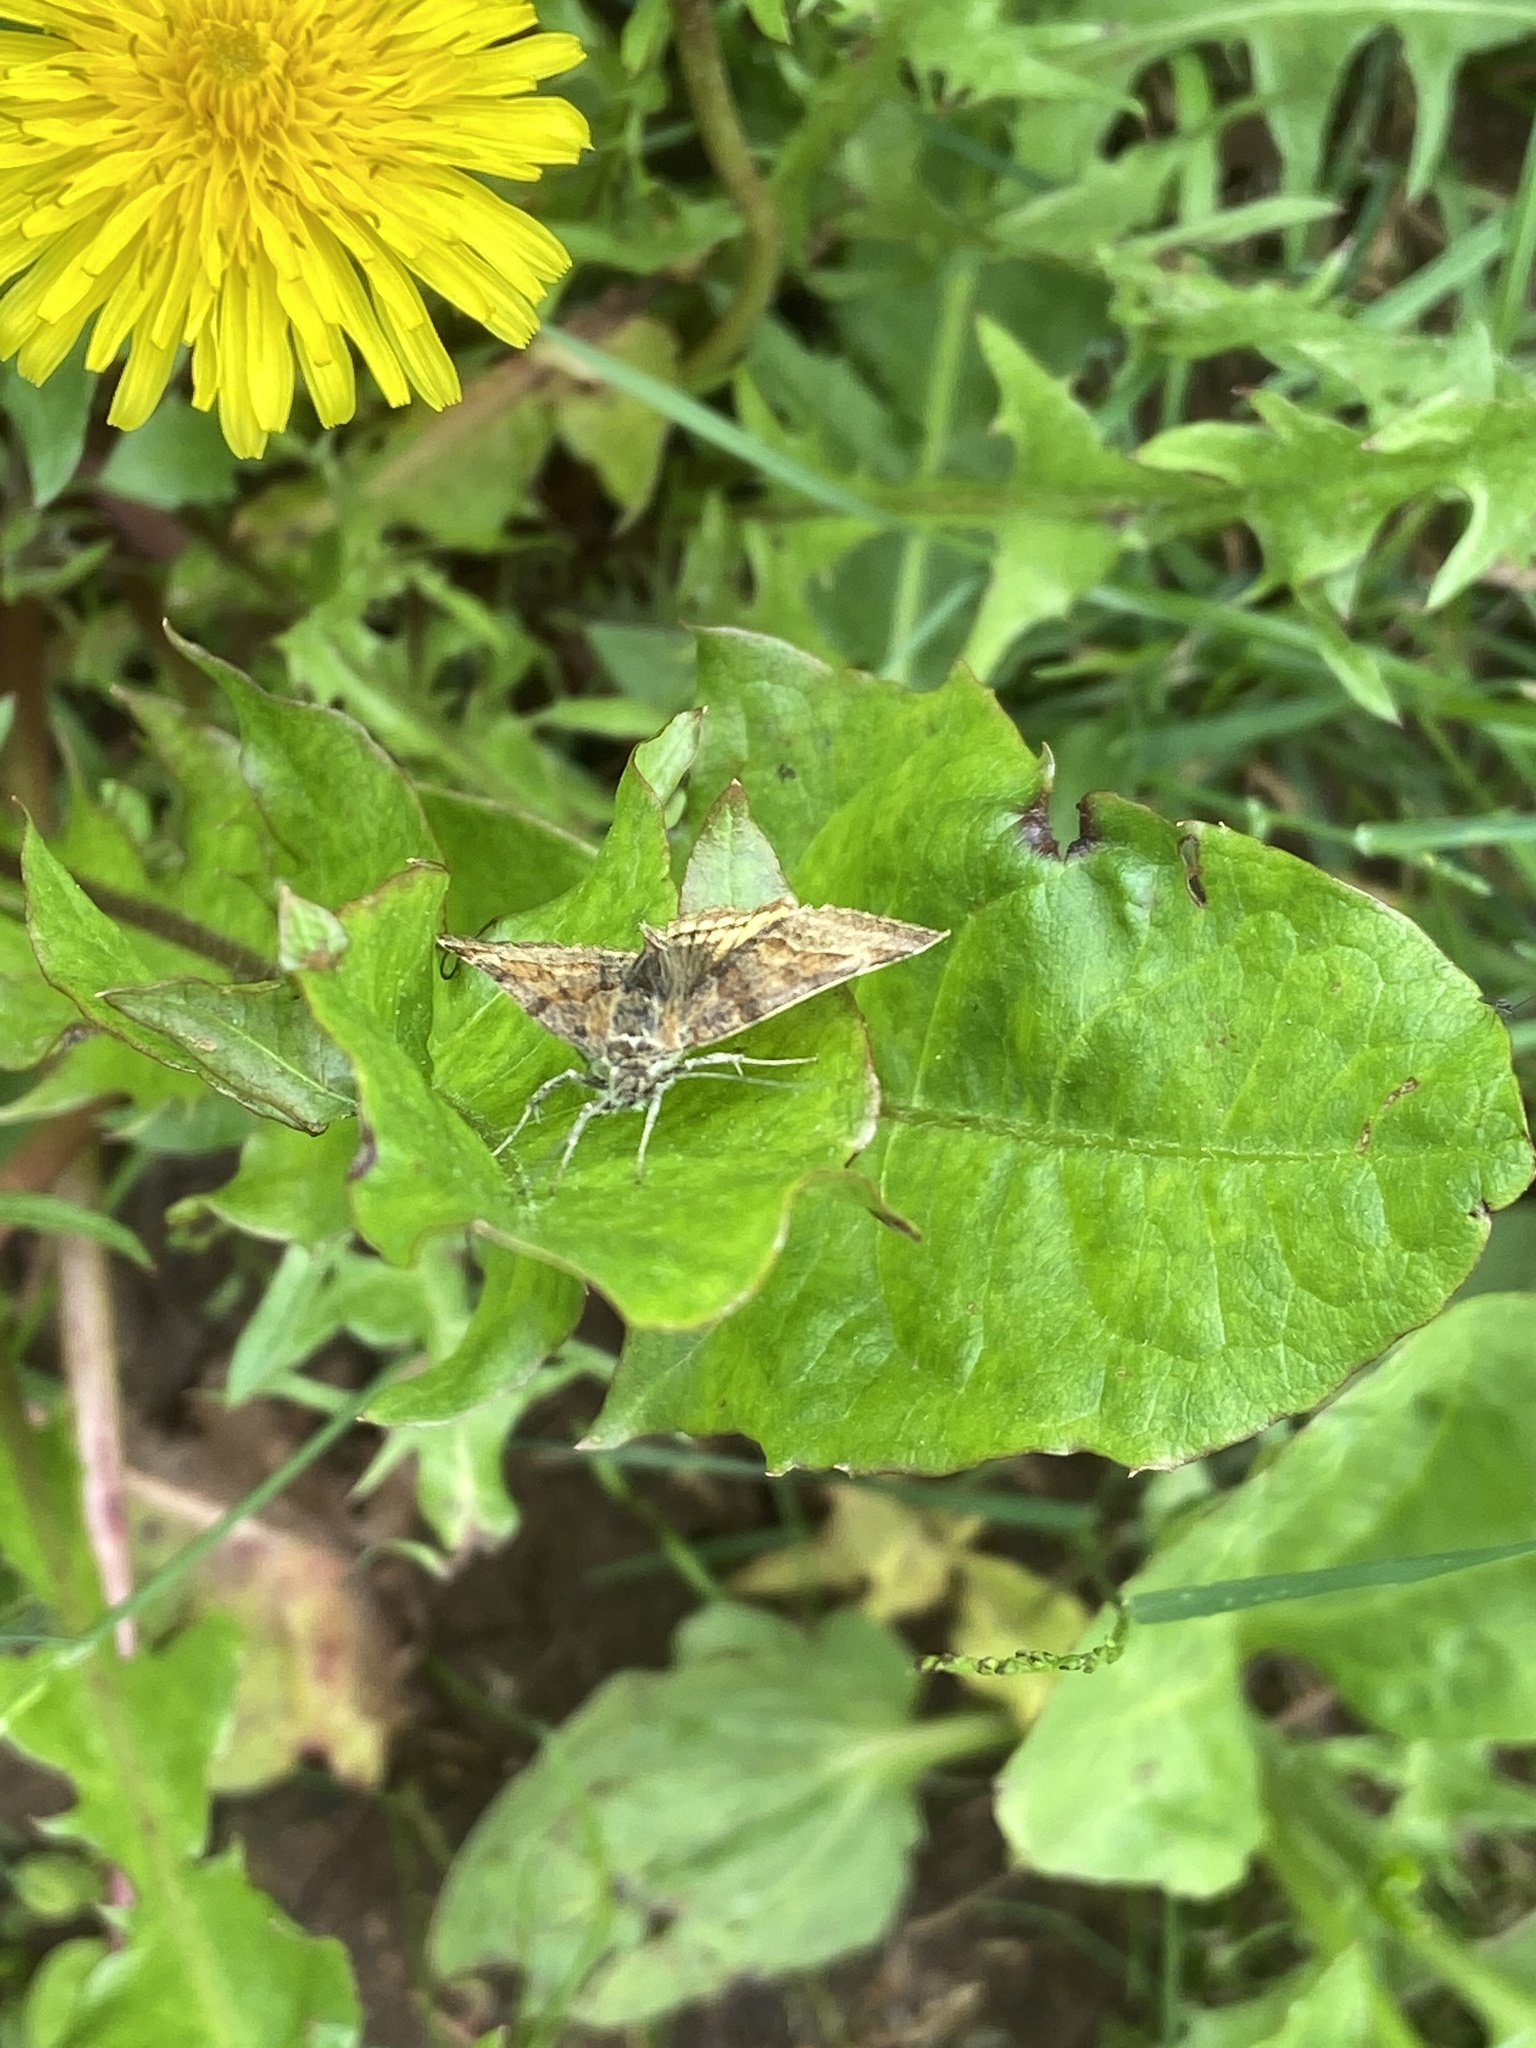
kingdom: Animalia
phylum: Arthropoda
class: Insecta
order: Lepidoptera
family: Erebidae
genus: Euclidia
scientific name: Euclidia glyphica
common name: Burnet companion
